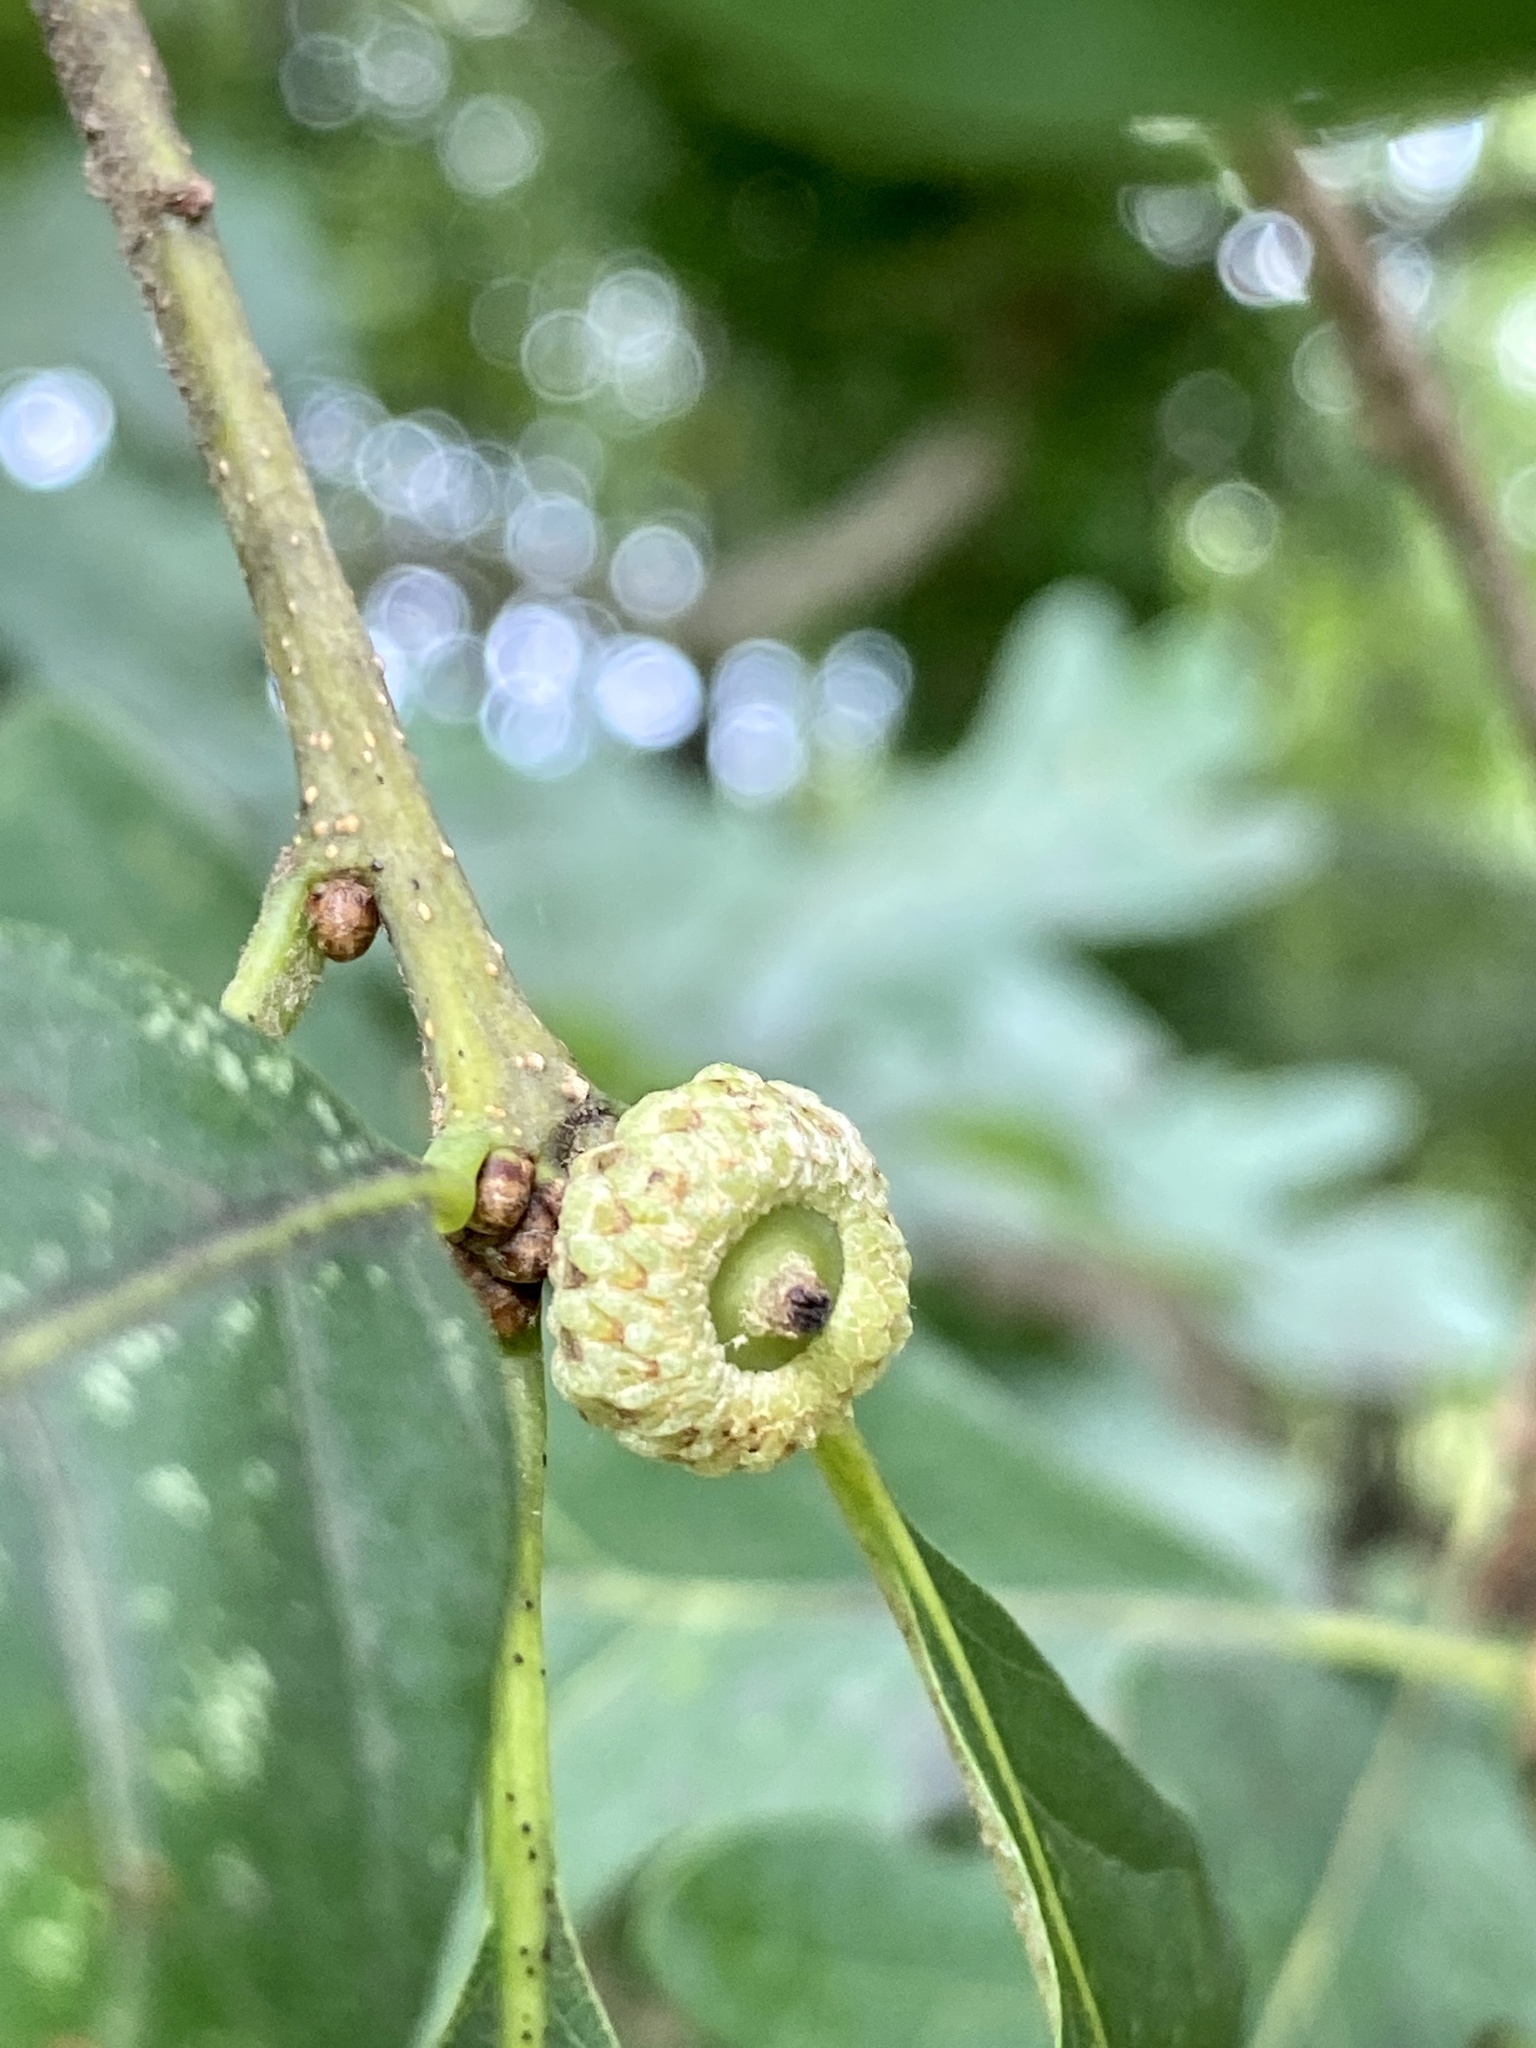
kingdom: Plantae
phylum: Tracheophyta
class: Magnoliopsida
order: Fagales
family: Fagaceae
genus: Quercus
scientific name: Quercus alba
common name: White oak
